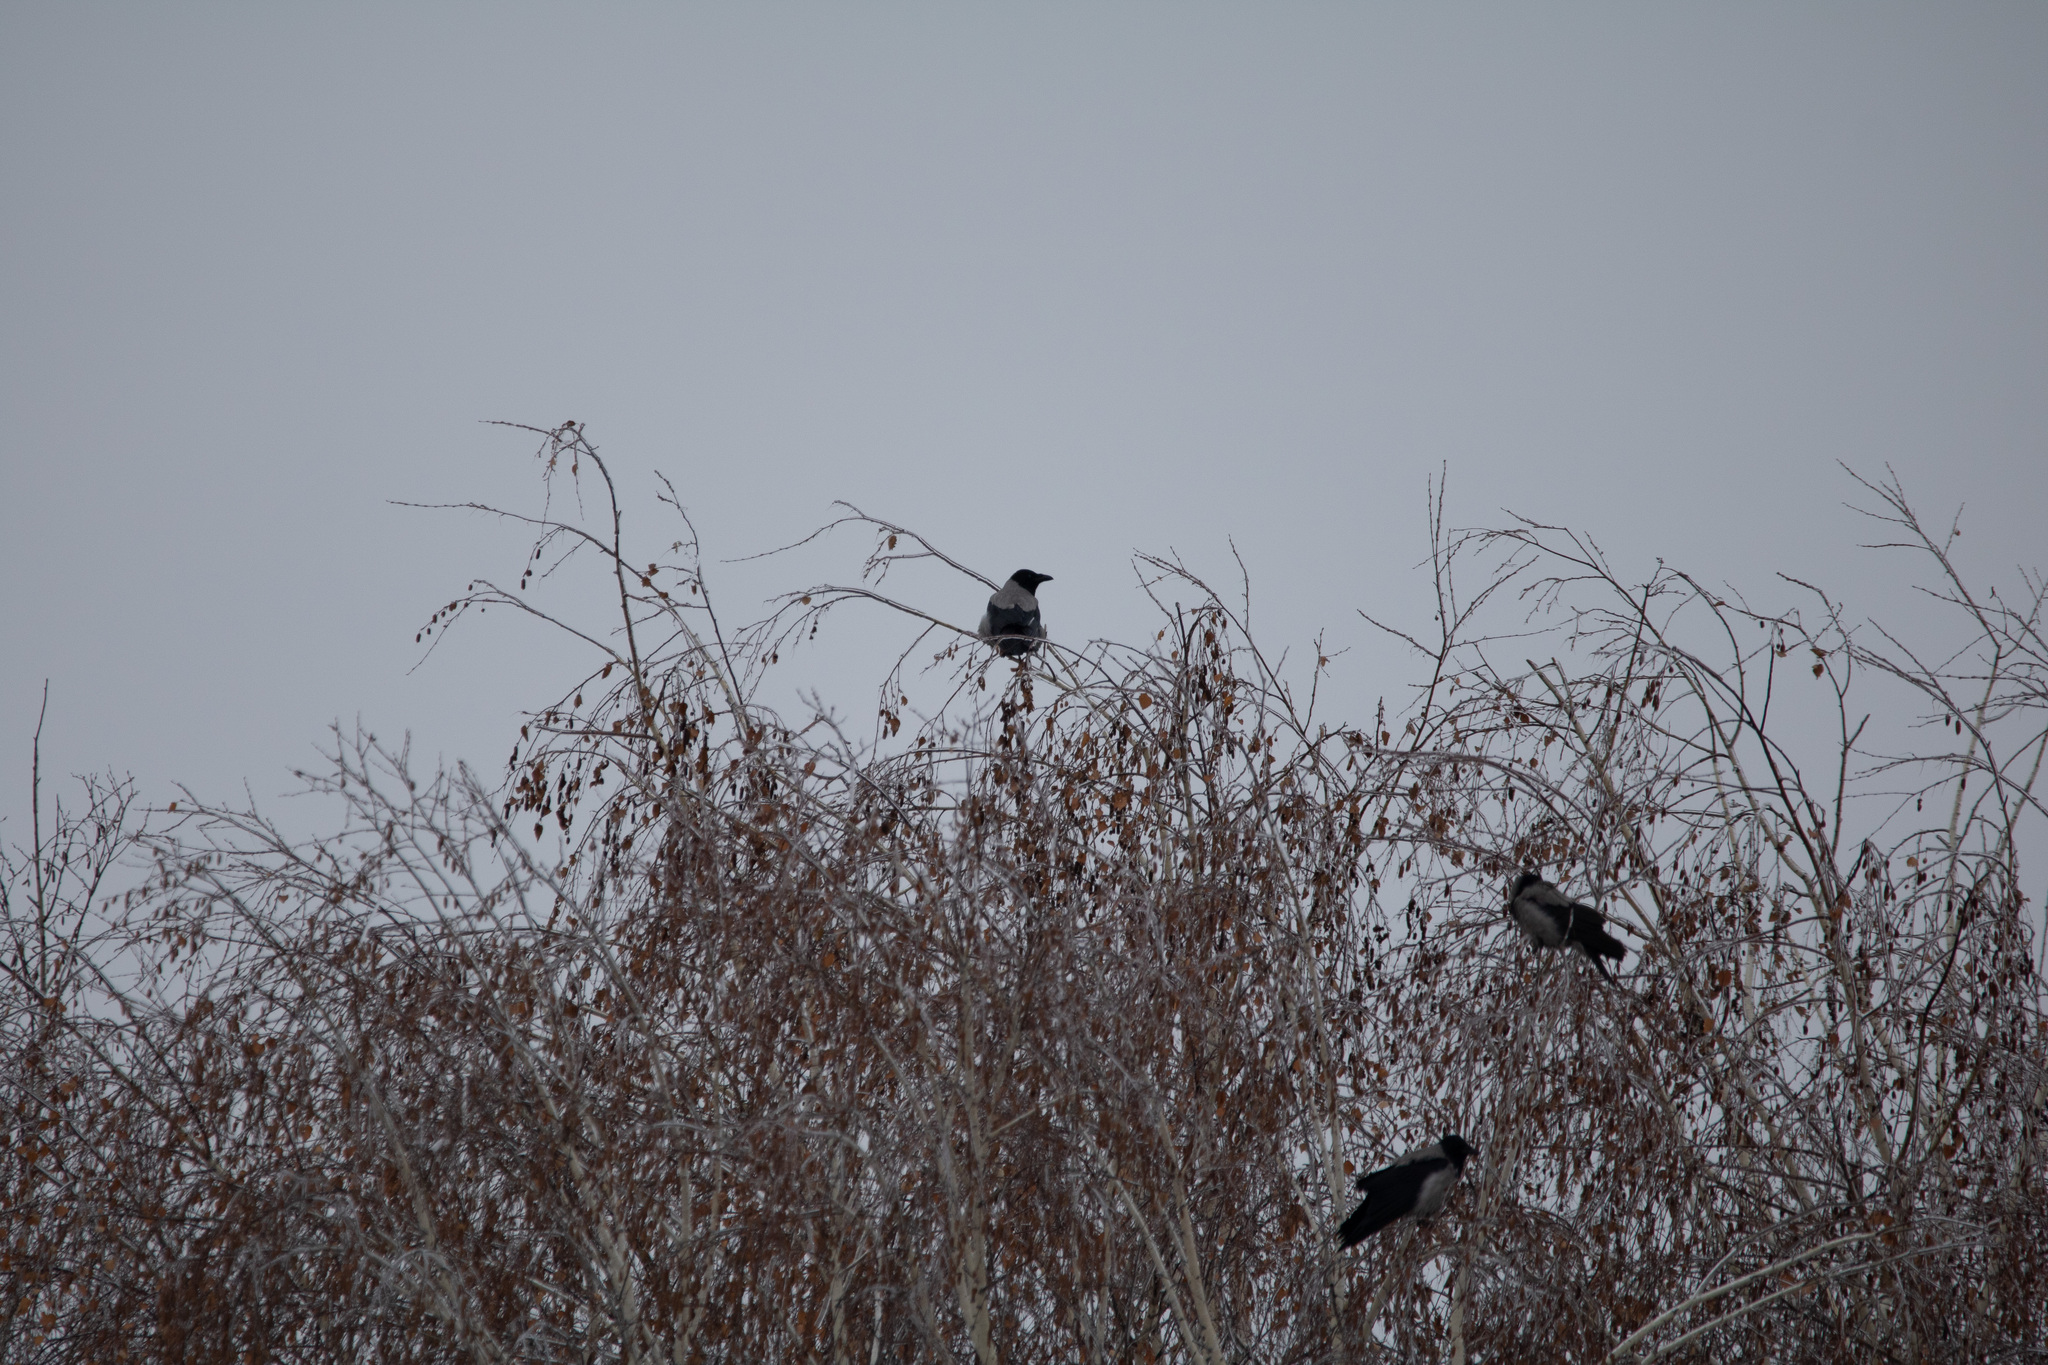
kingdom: Animalia
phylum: Chordata
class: Aves
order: Passeriformes
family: Corvidae
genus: Corvus
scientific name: Corvus cornix
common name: Hooded crow
